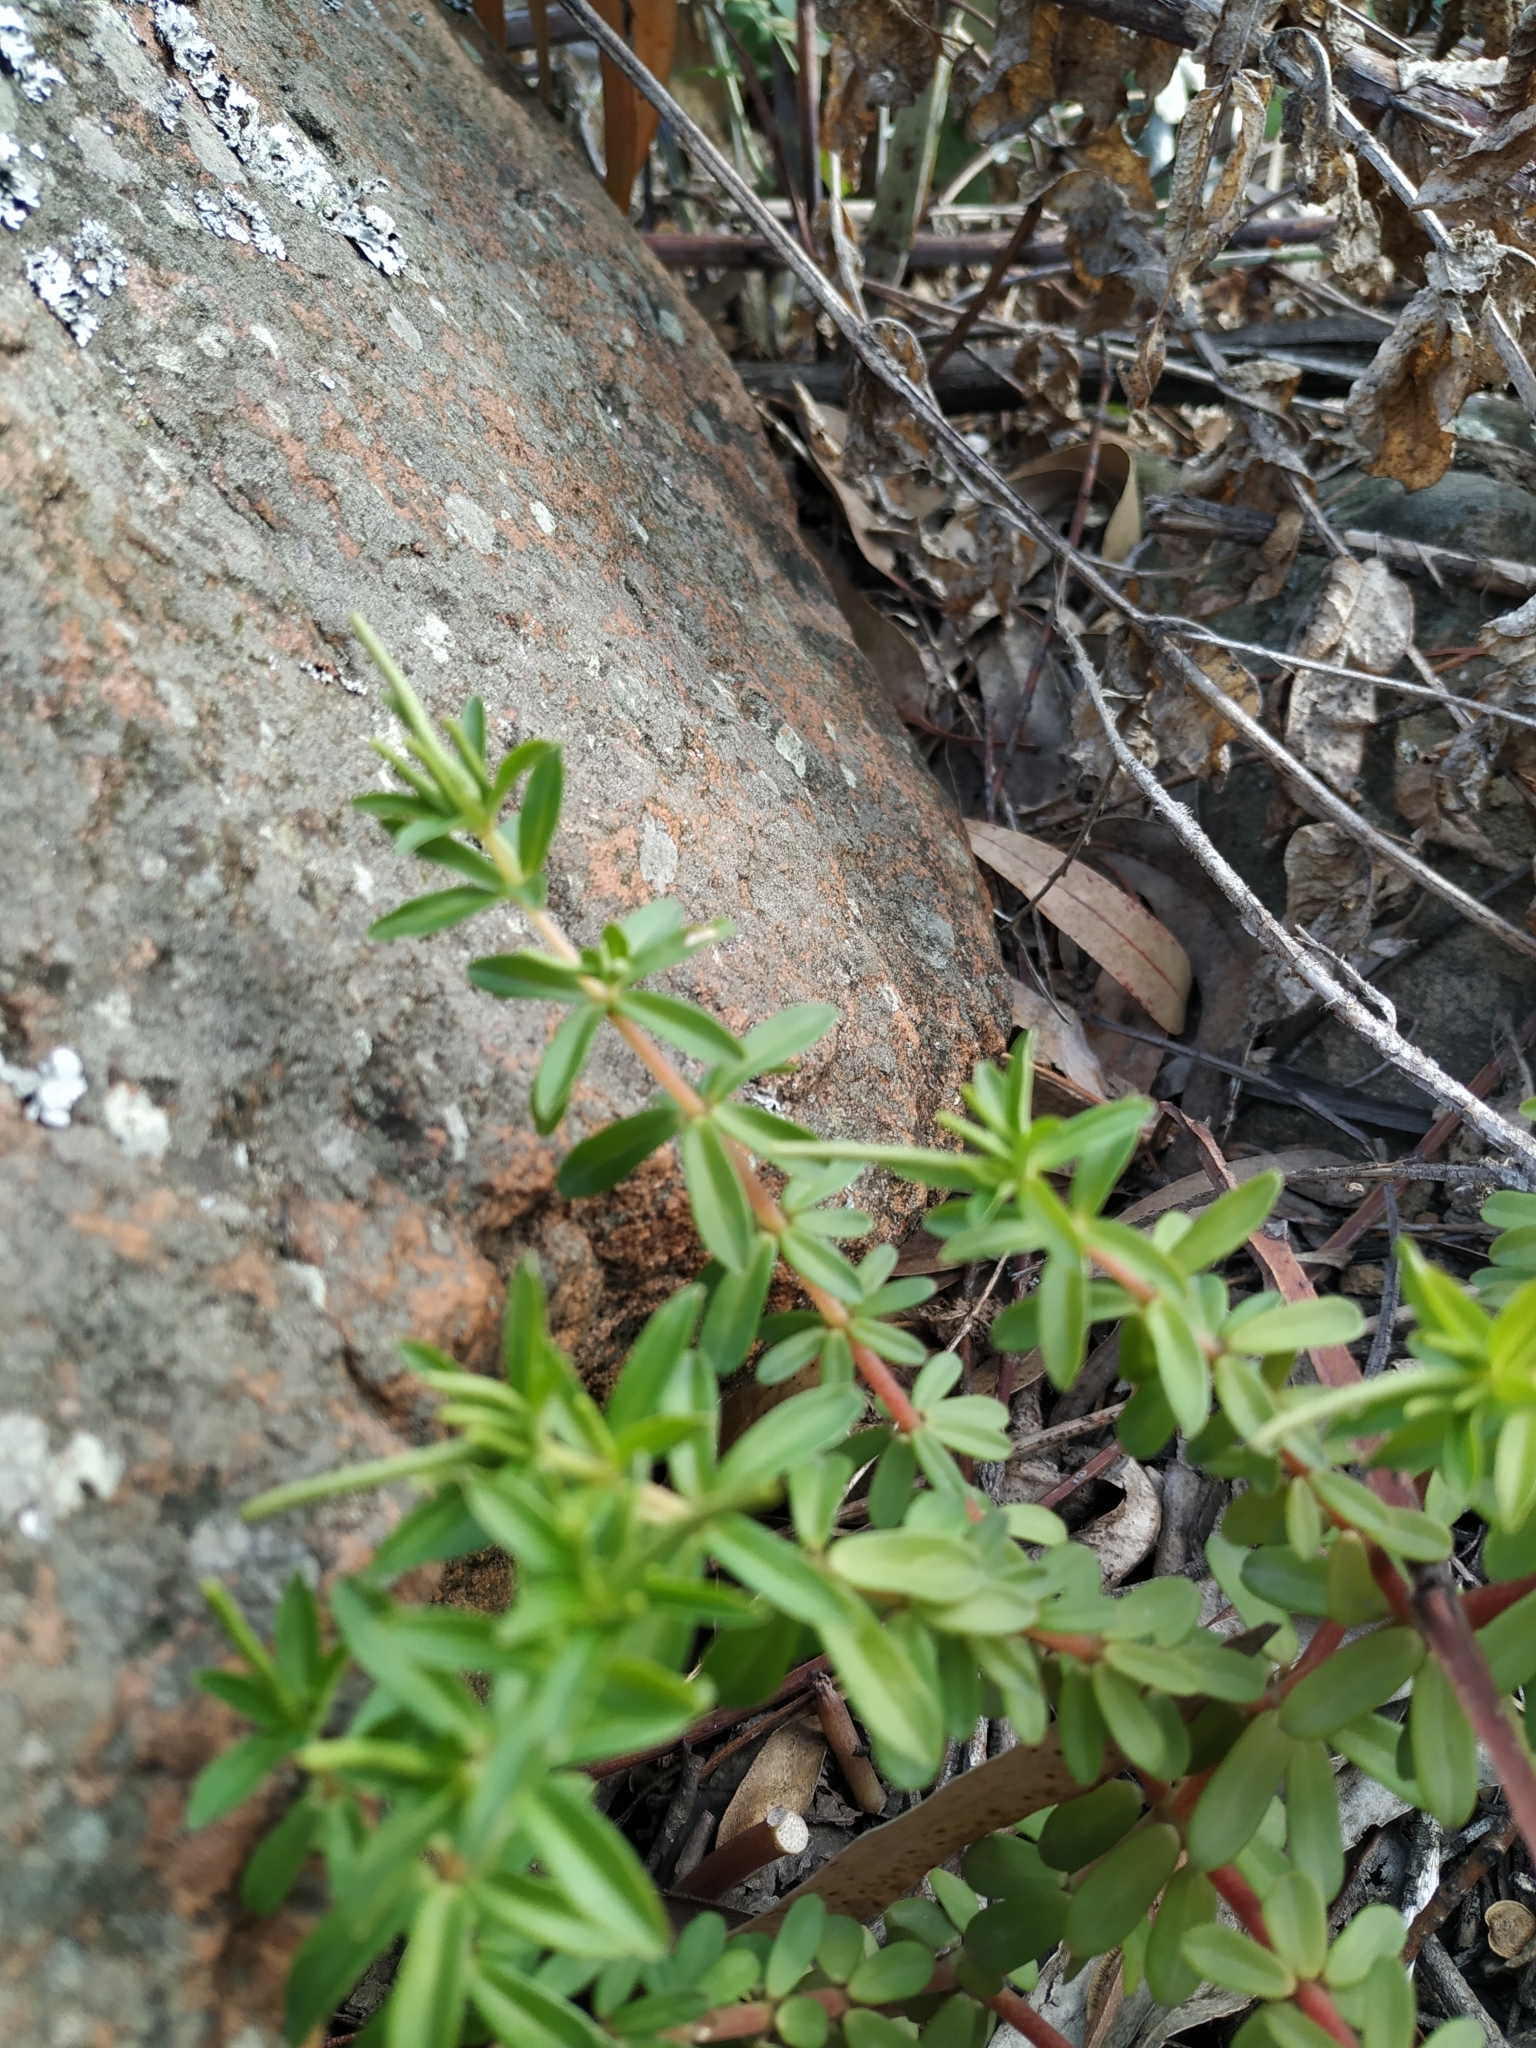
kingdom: Plantae
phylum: Tracheophyta
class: Magnoliopsida
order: Piperales
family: Piperaceae
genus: Peperomia
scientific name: Peperomia galioides
